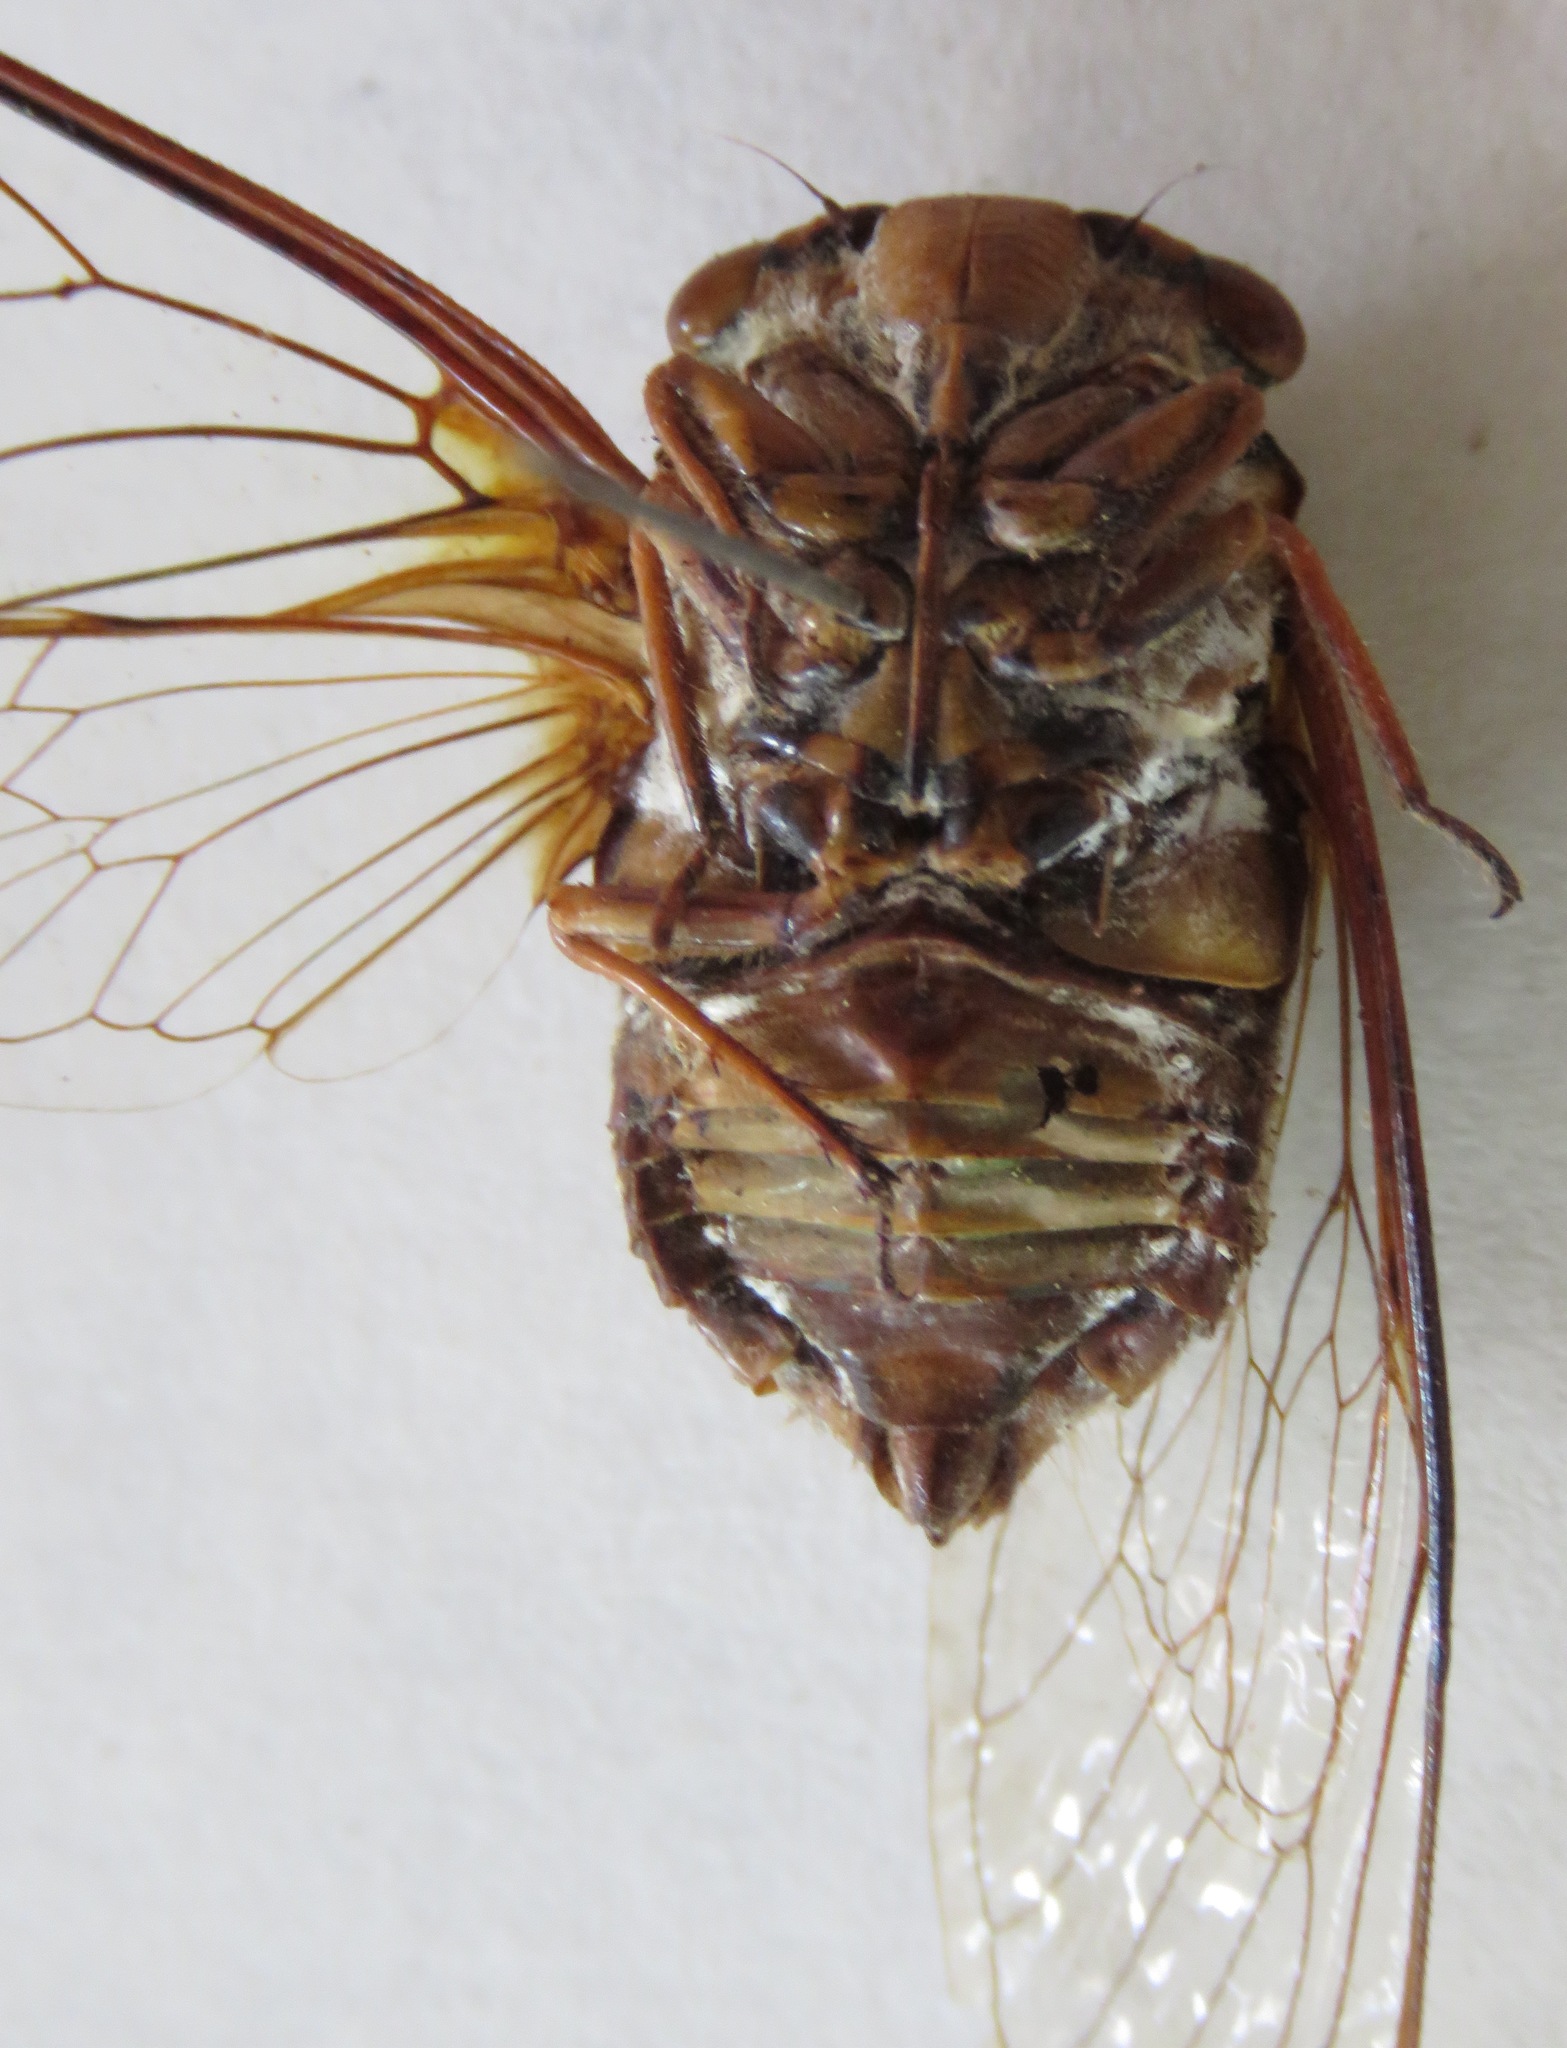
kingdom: Animalia
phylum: Arthropoda
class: Insecta
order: Hemiptera
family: Cicadidae
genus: Guyalna
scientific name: Guyalna bicolor
